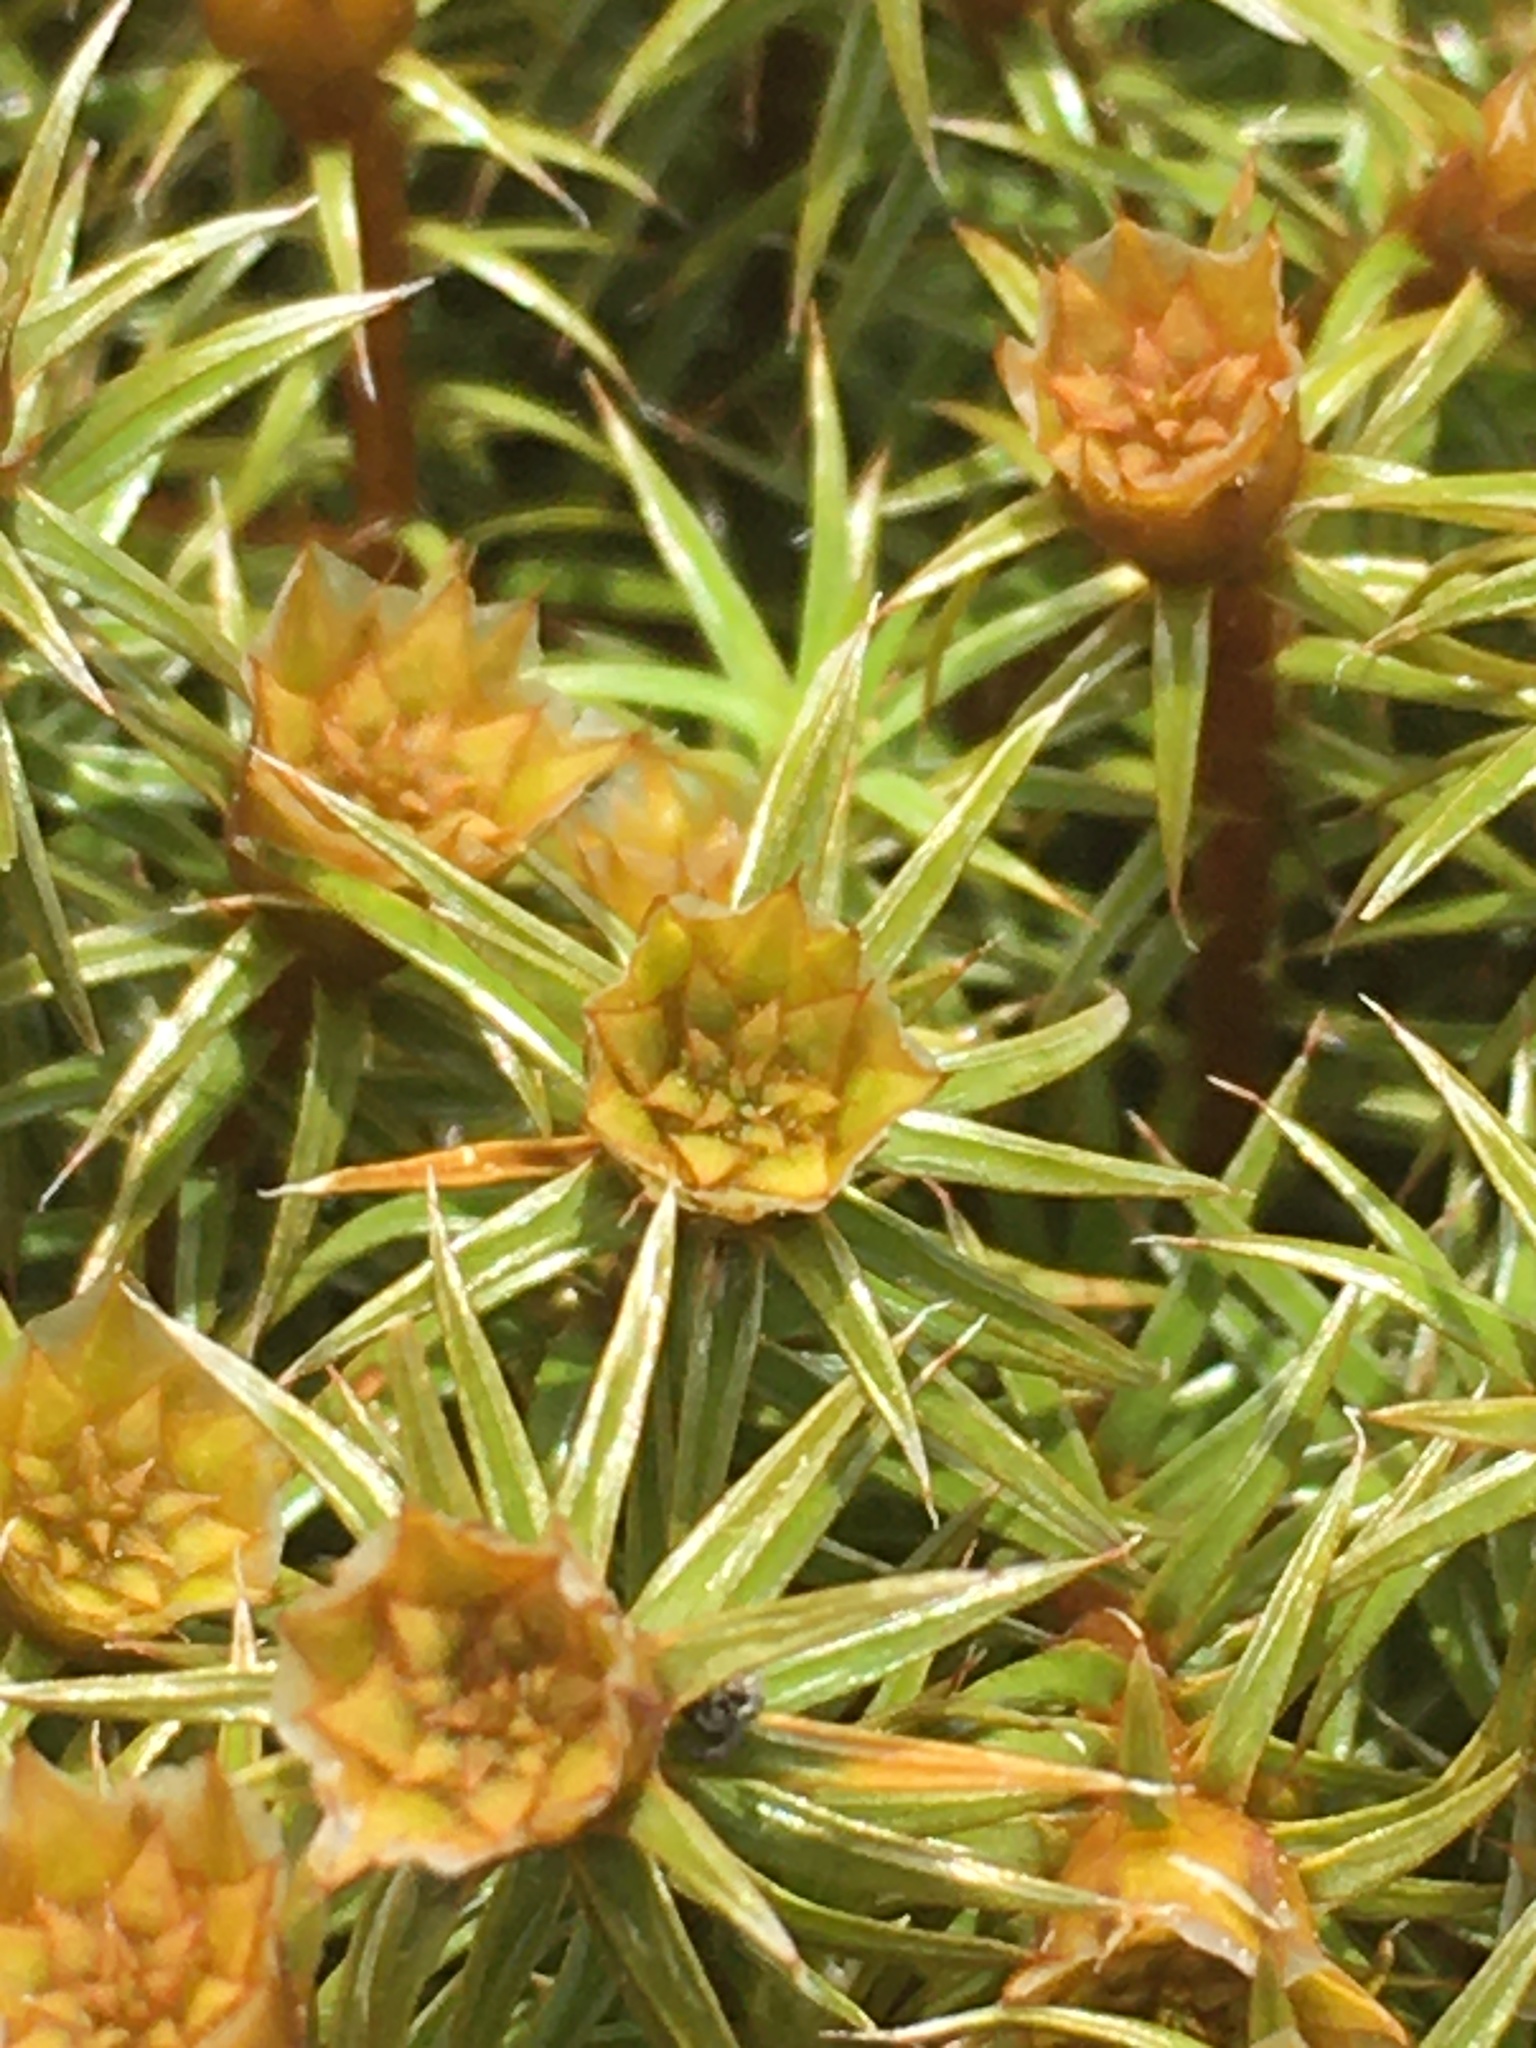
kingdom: Plantae
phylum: Bryophyta
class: Polytrichopsida
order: Polytrichales
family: Polytrichaceae
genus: Polytrichum
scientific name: Polytrichum piliferum
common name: Bristly haircap
